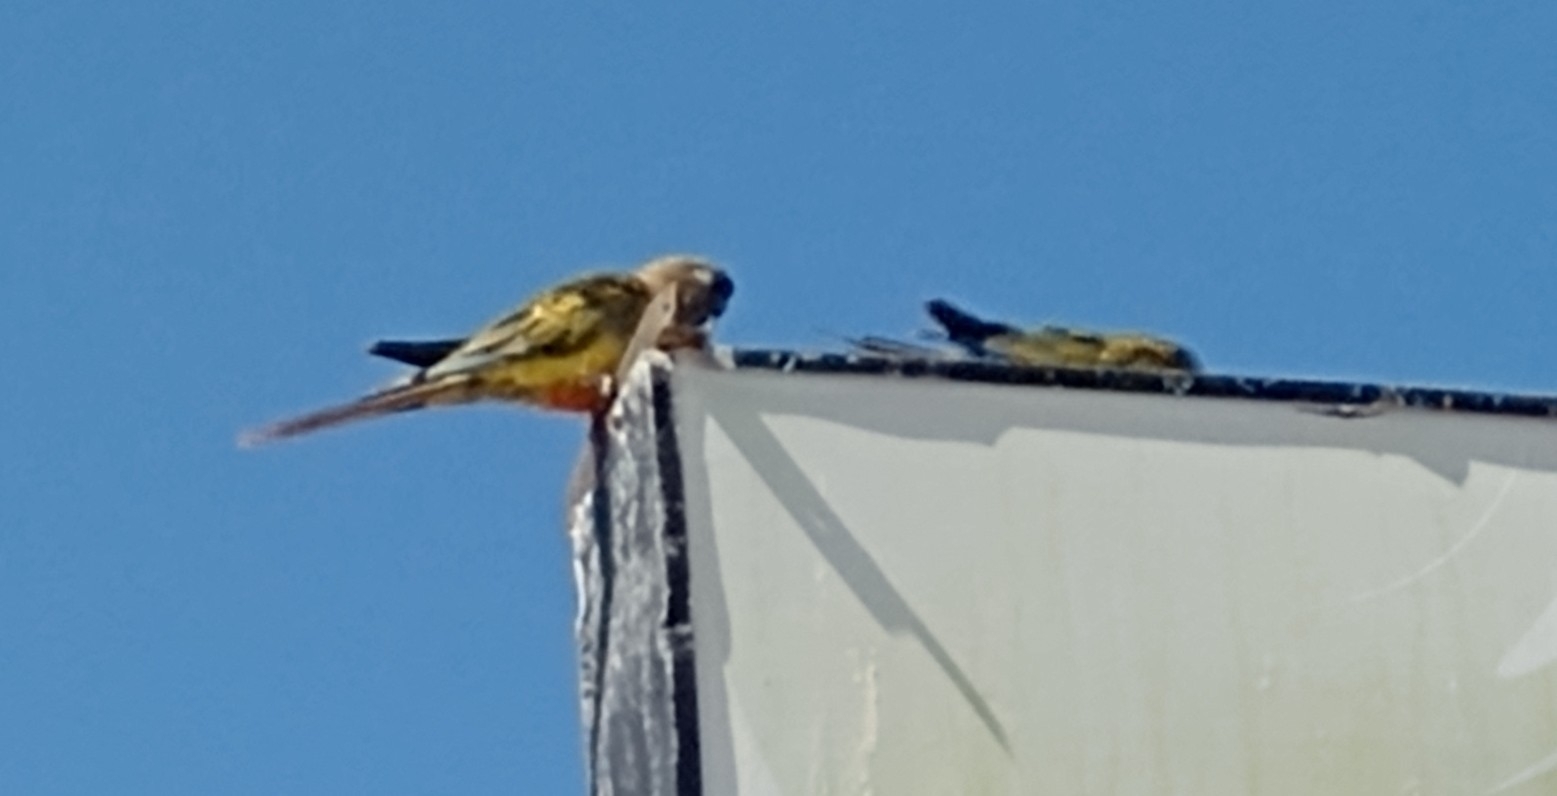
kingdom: Animalia
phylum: Chordata
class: Aves
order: Psittaciformes
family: Psittacidae
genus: Cyanoliseus
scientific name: Cyanoliseus patagonus
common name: Burrowing parrot
